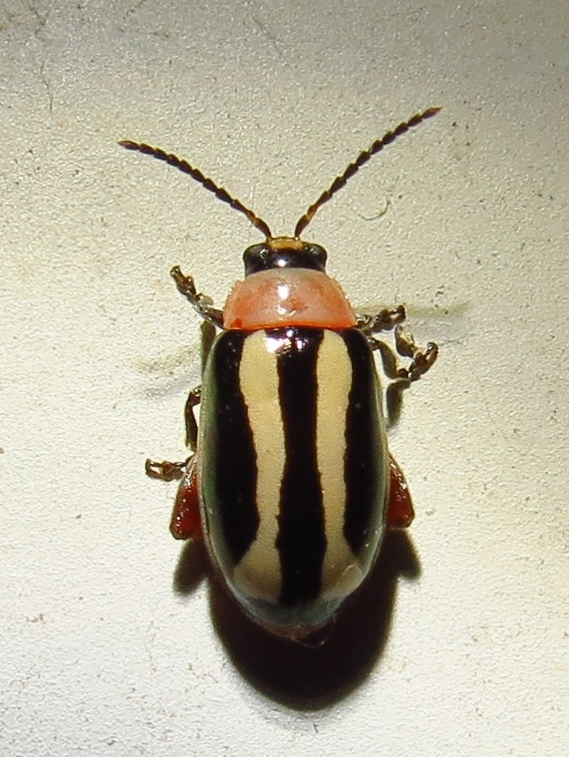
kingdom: Animalia
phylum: Arthropoda
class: Insecta
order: Coleoptera
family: Chrysomelidae
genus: Kuschelina
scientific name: Kuschelina laeta
